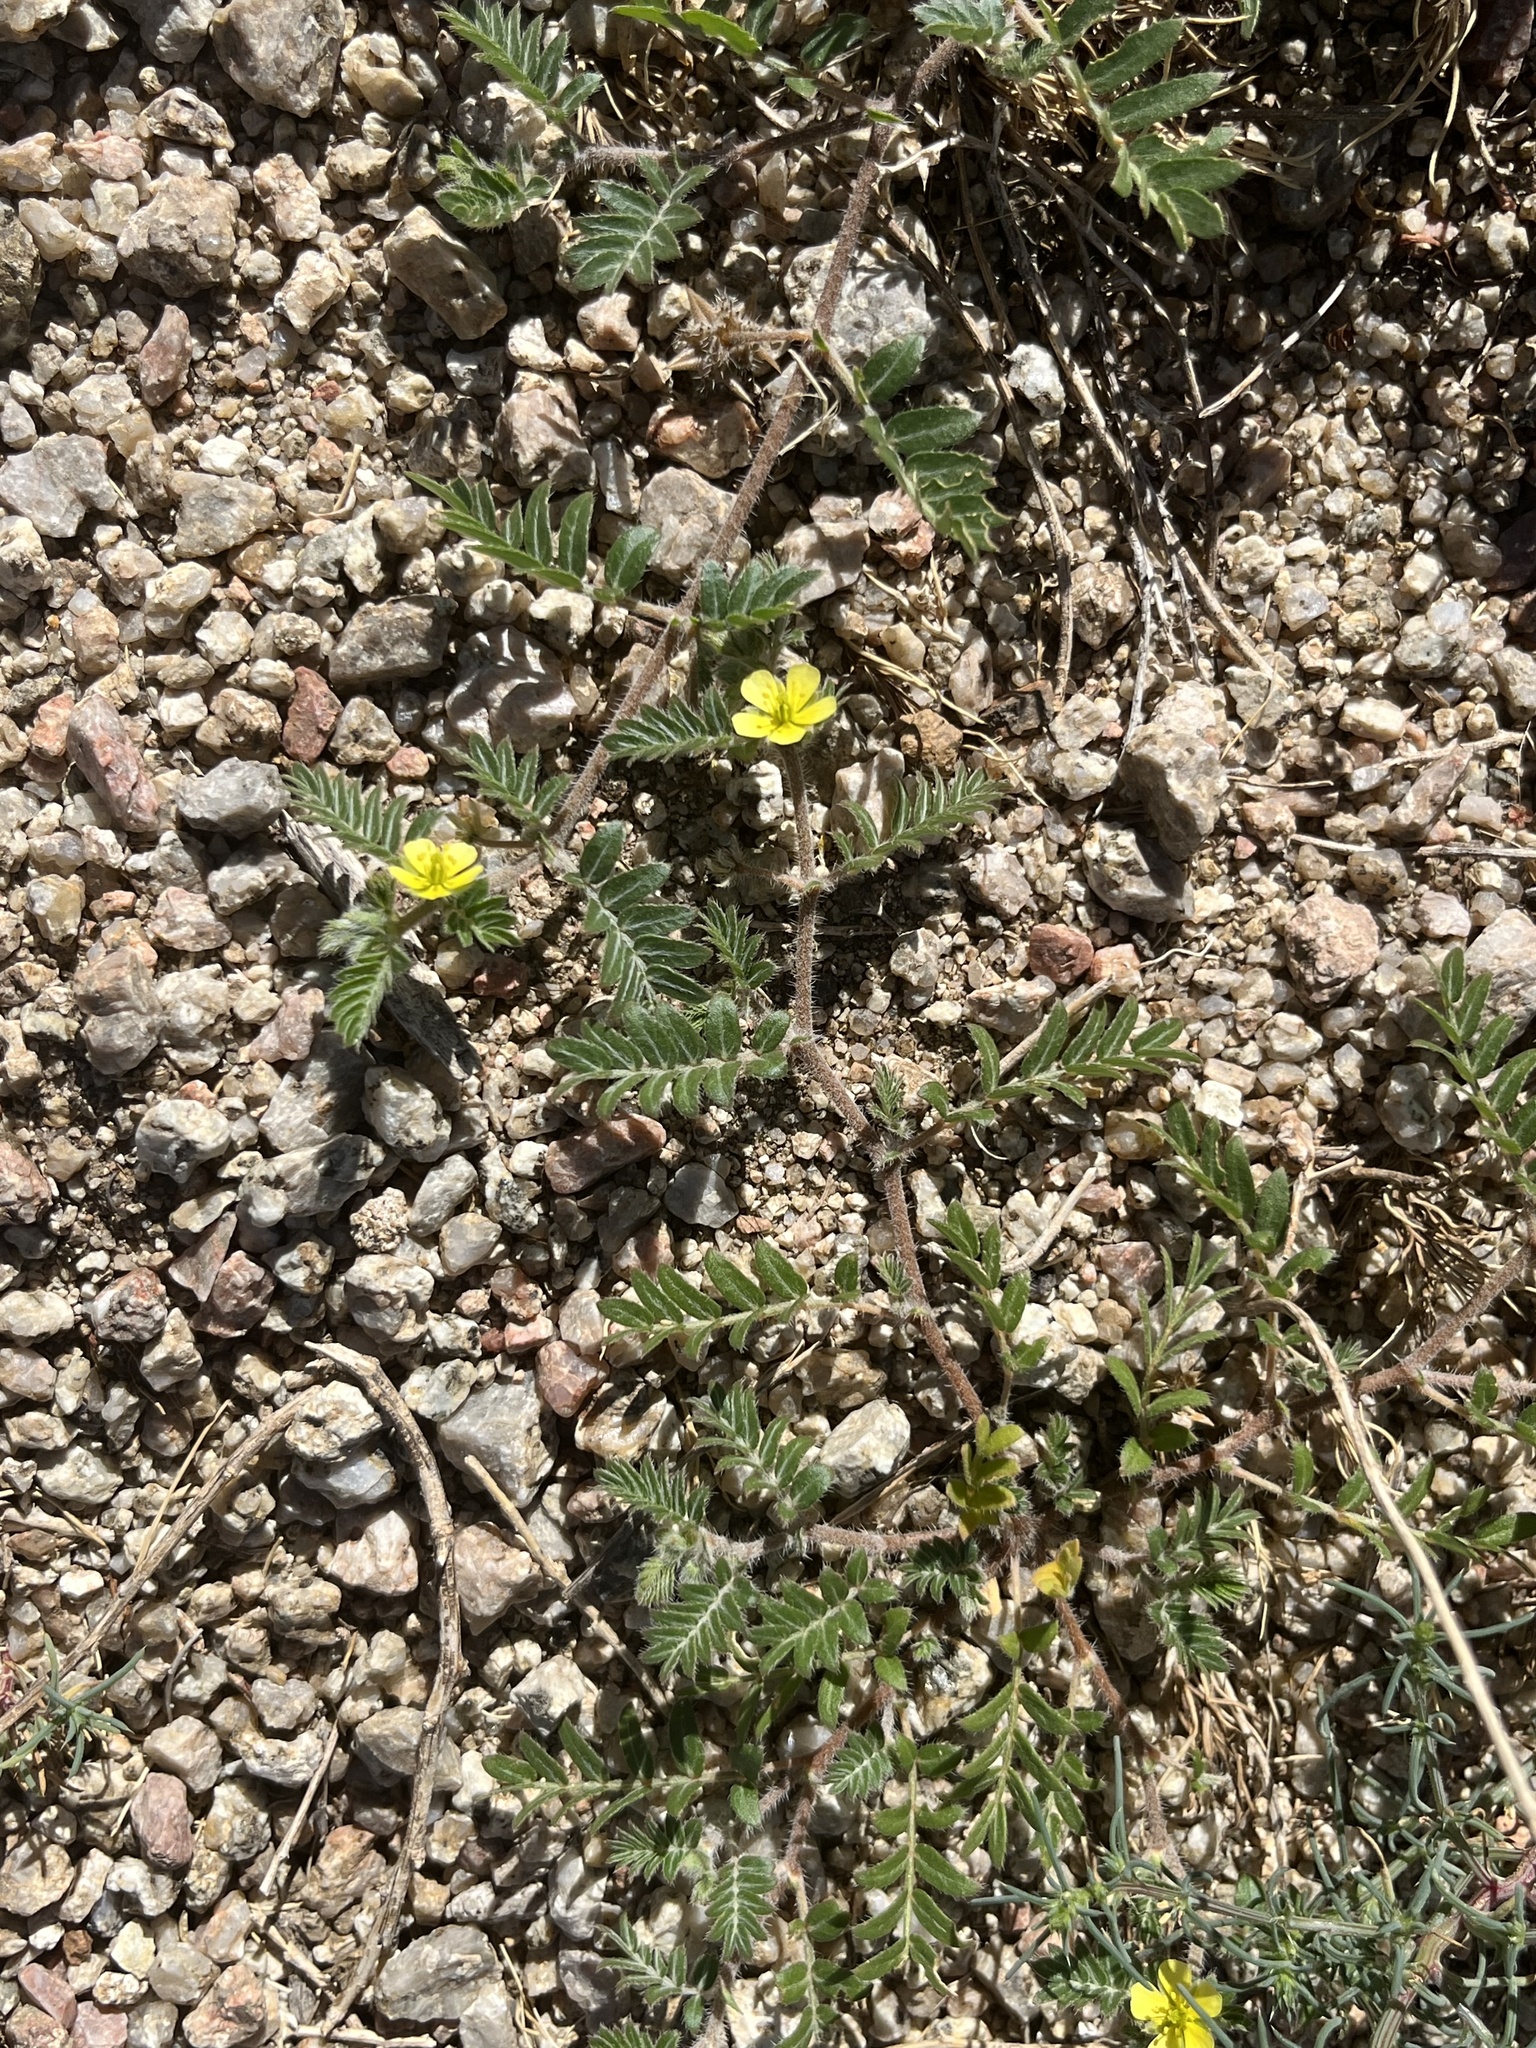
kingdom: Plantae
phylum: Tracheophyta
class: Magnoliopsida
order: Zygophyllales
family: Zygophyllaceae
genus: Tribulus
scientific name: Tribulus terrestris
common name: Puncturevine
